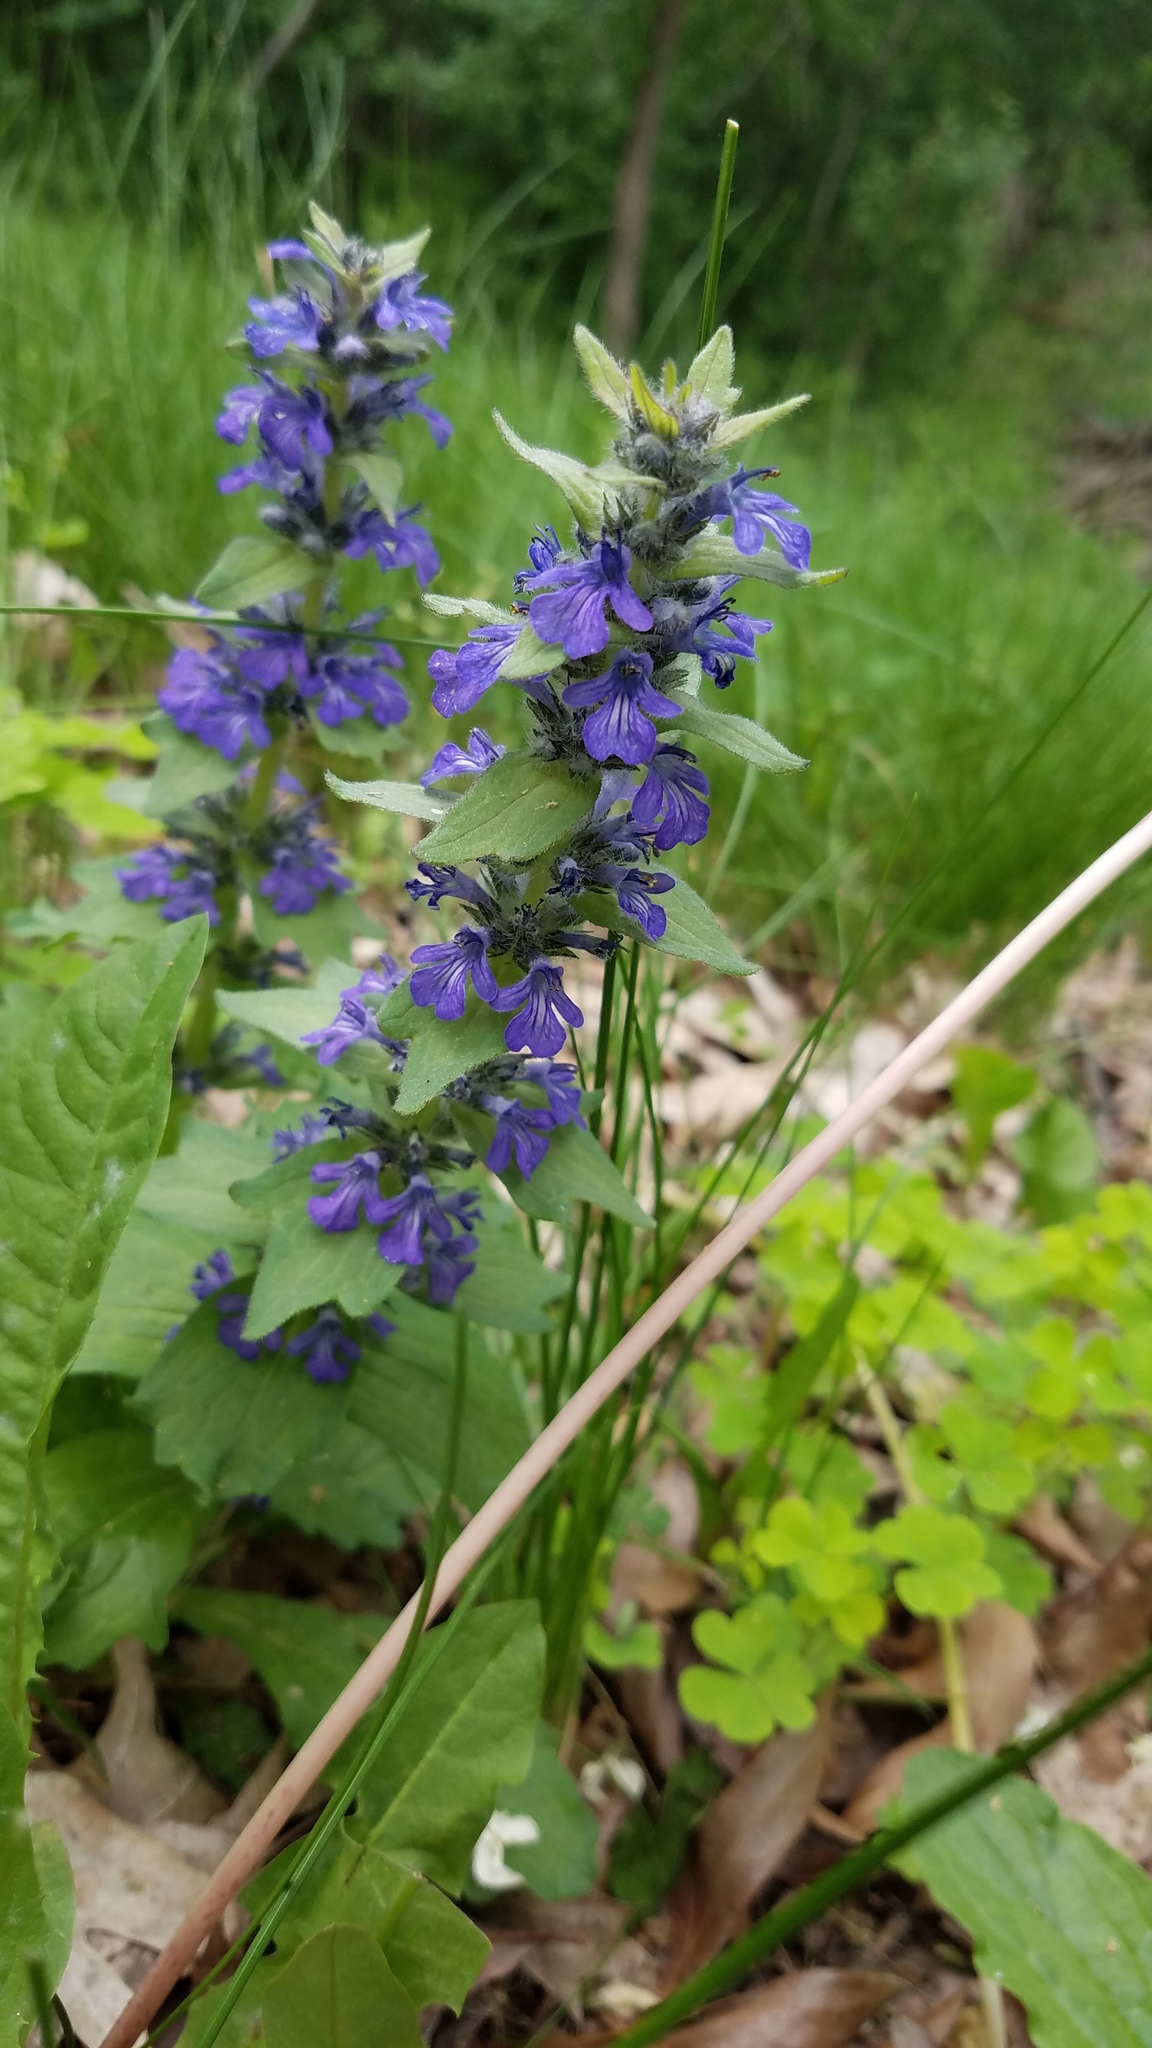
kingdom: Plantae
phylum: Tracheophyta
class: Magnoliopsida
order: Lamiales
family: Lamiaceae
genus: Ajuga
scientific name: Ajuga genevensis
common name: Blue bugle
